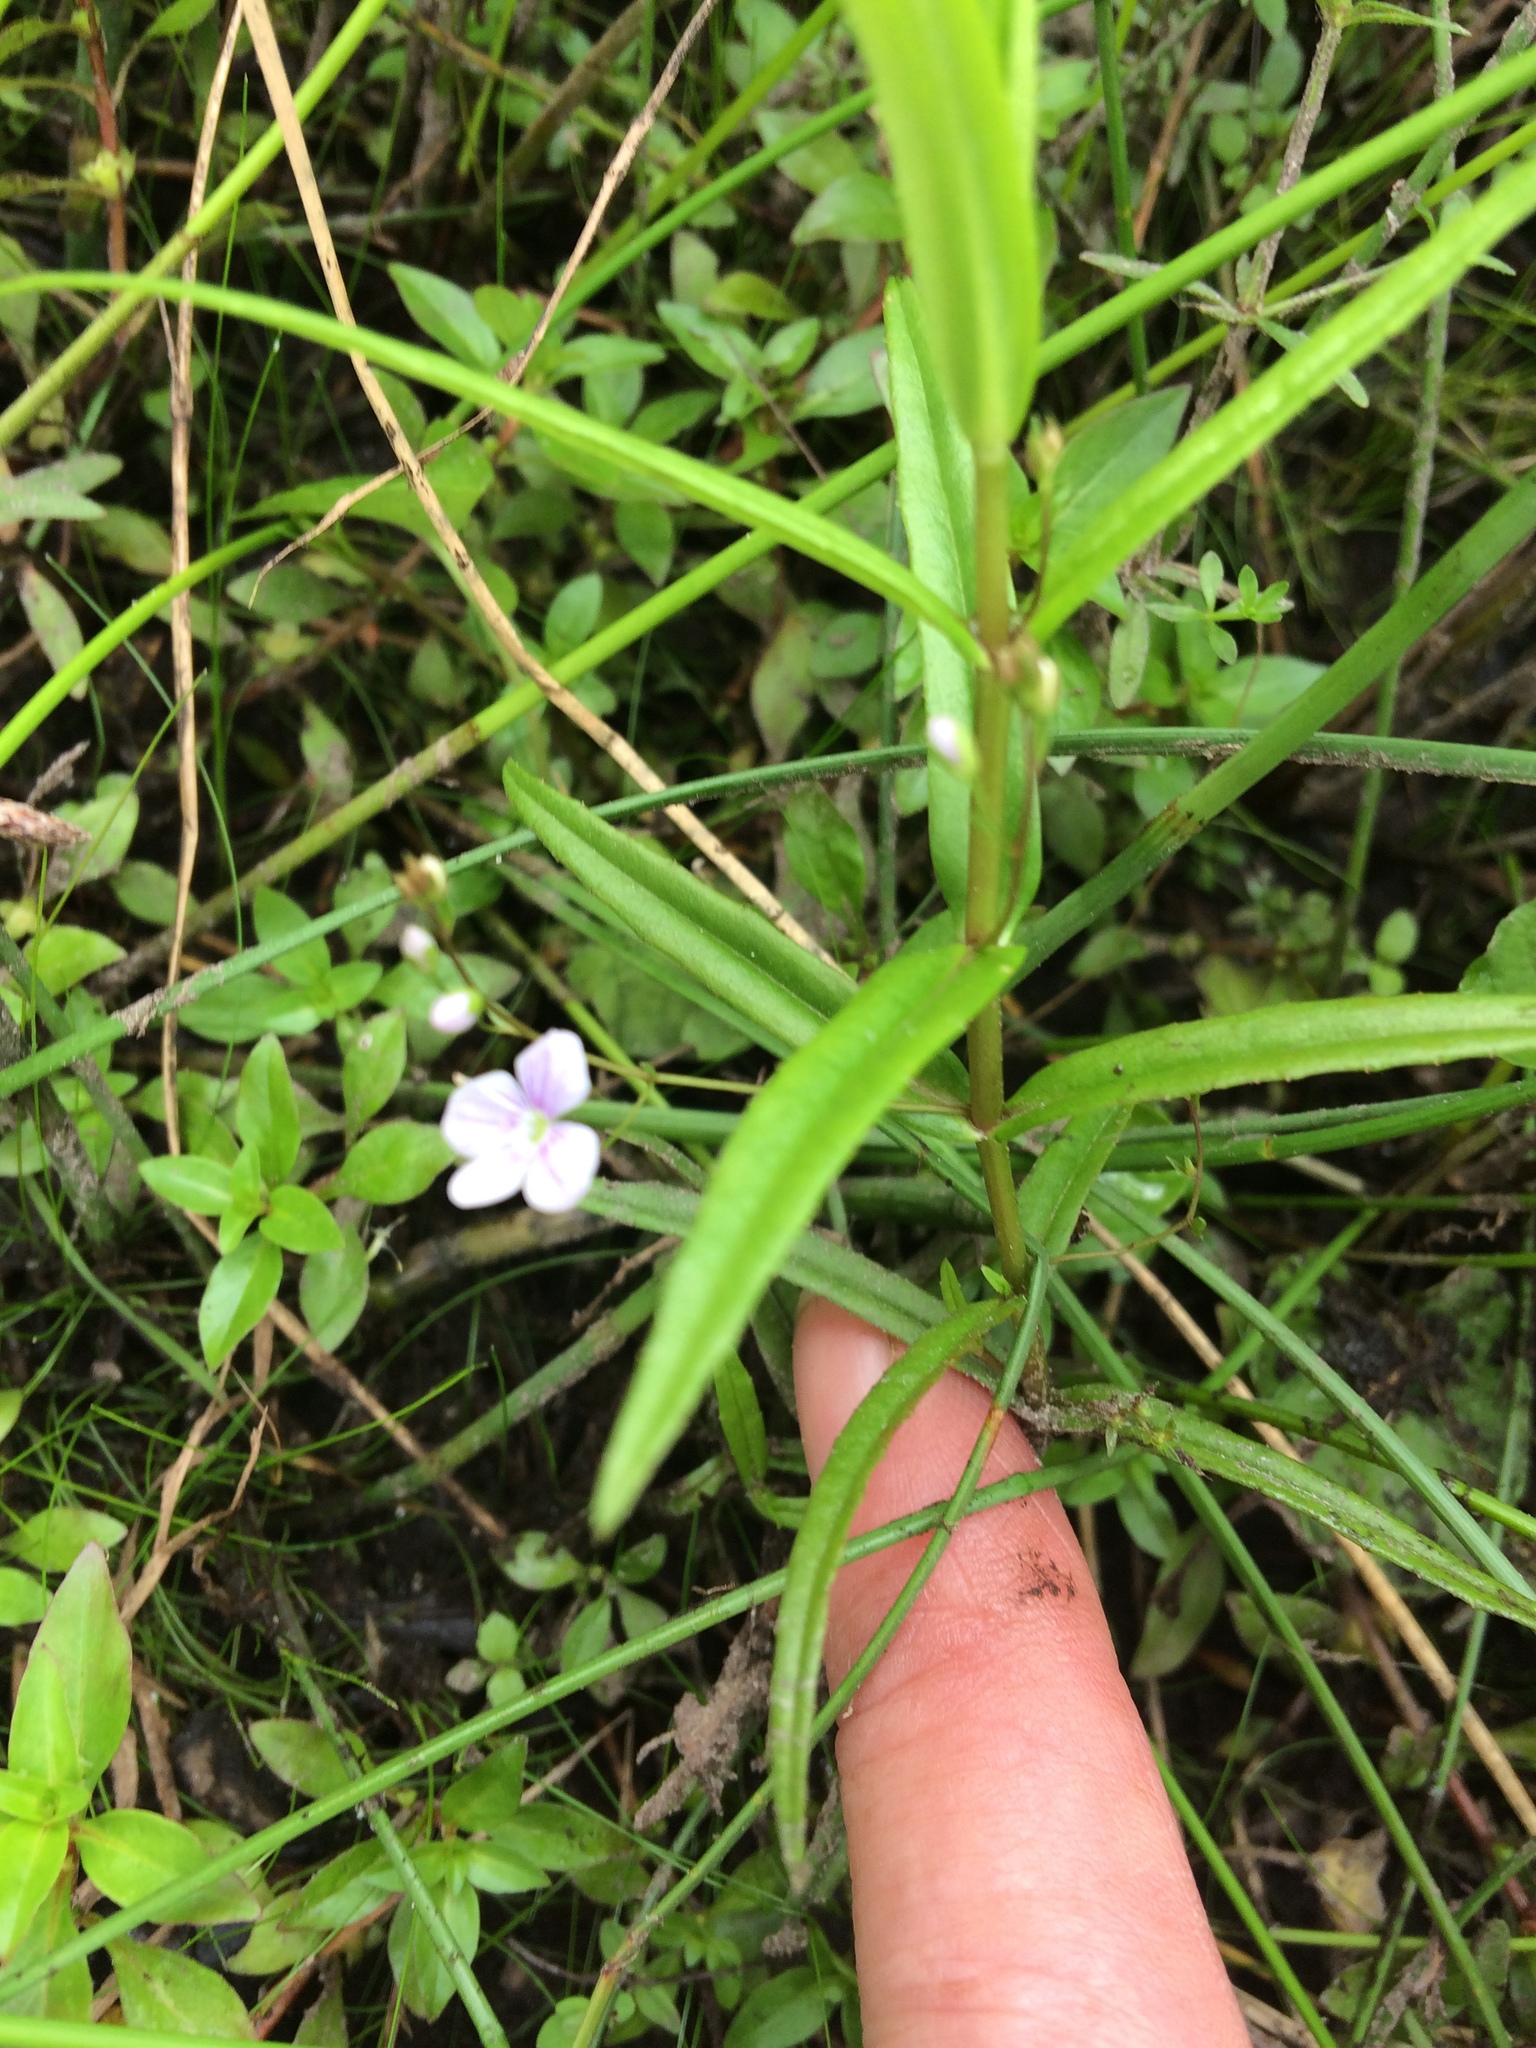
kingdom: Plantae
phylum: Tracheophyta
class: Magnoliopsida
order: Lamiales
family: Plantaginaceae
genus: Veronica
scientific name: Veronica scutellata
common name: Marsh speedwell
